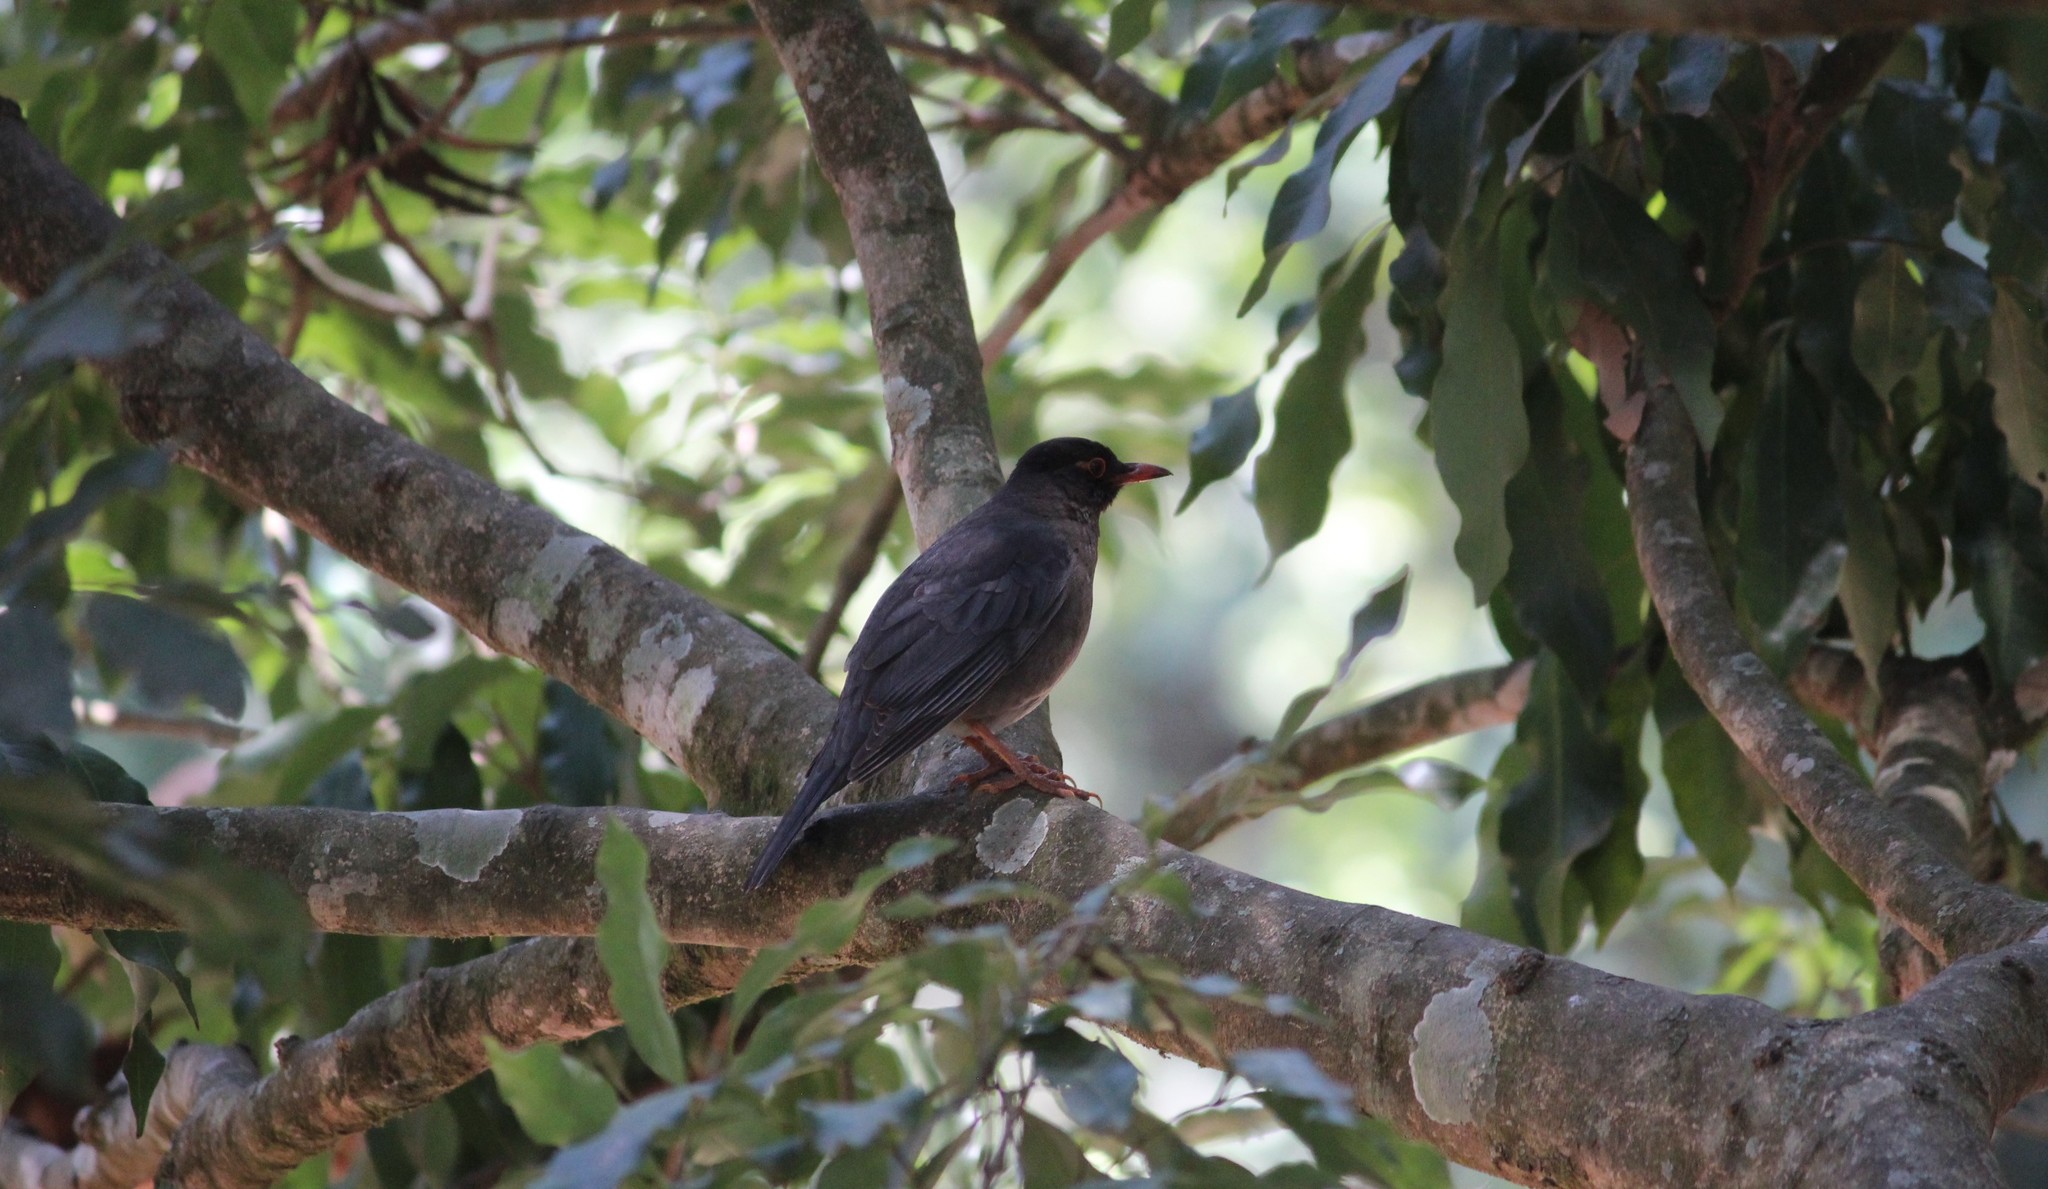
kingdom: Animalia
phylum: Chordata
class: Aves
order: Passeriformes
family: Turdidae
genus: Turdus
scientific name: Turdus simillimus
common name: Indian blackbird
